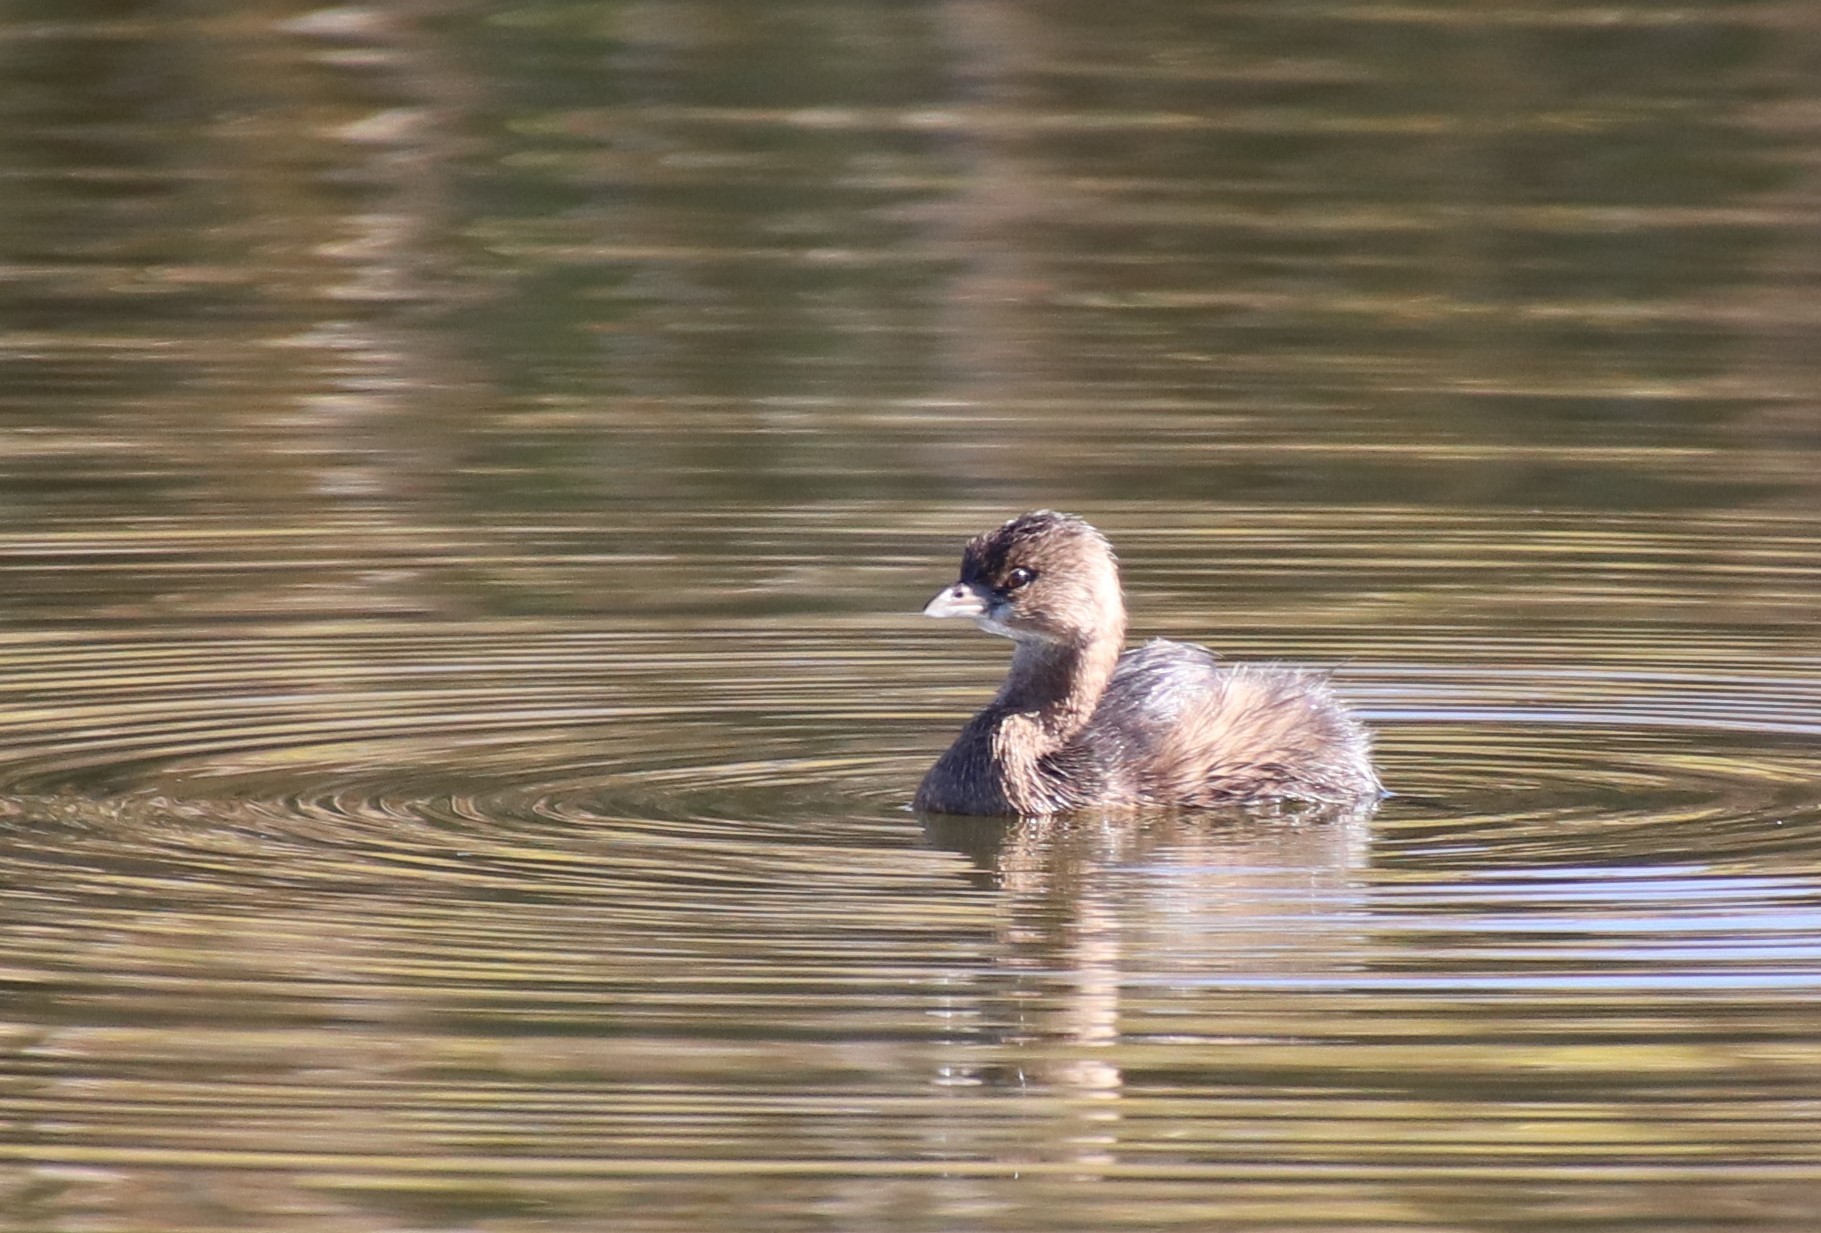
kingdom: Animalia
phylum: Chordata
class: Aves
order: Podicipediformes
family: Podicipedidae
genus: Podilymbus
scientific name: Podilymbus podiceps
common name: Pied-billed grebe
